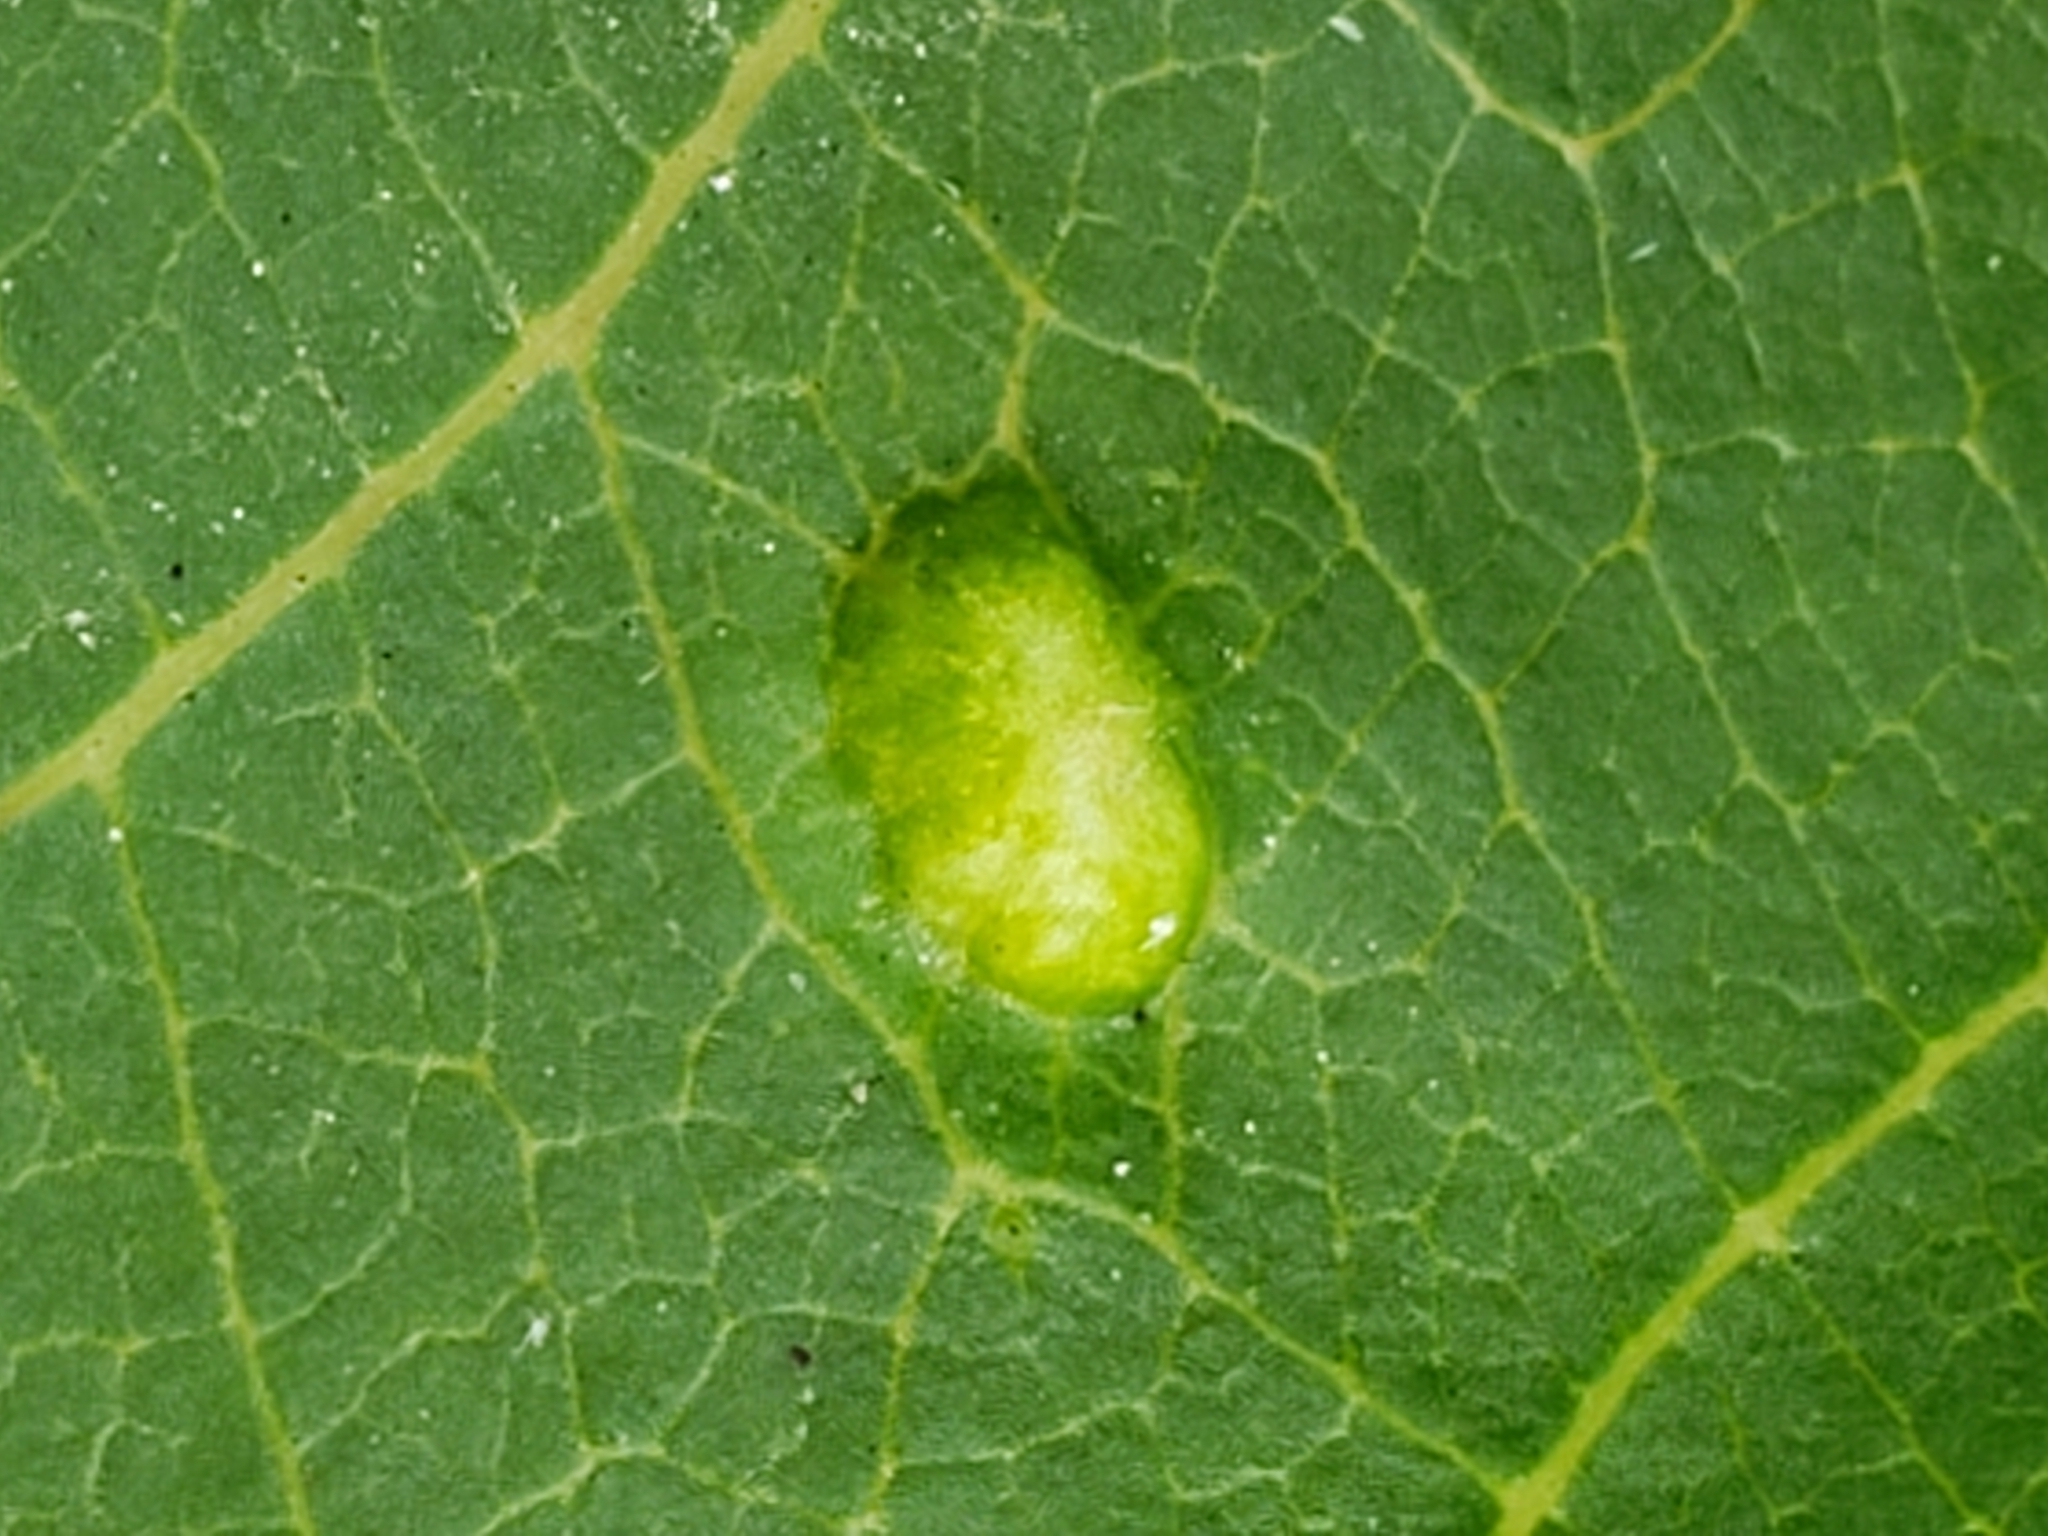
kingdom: Animalia
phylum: Arthropoda
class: Arachnida
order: Trombidiformes
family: Eriophyidae
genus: Aceria
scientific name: Aceria
